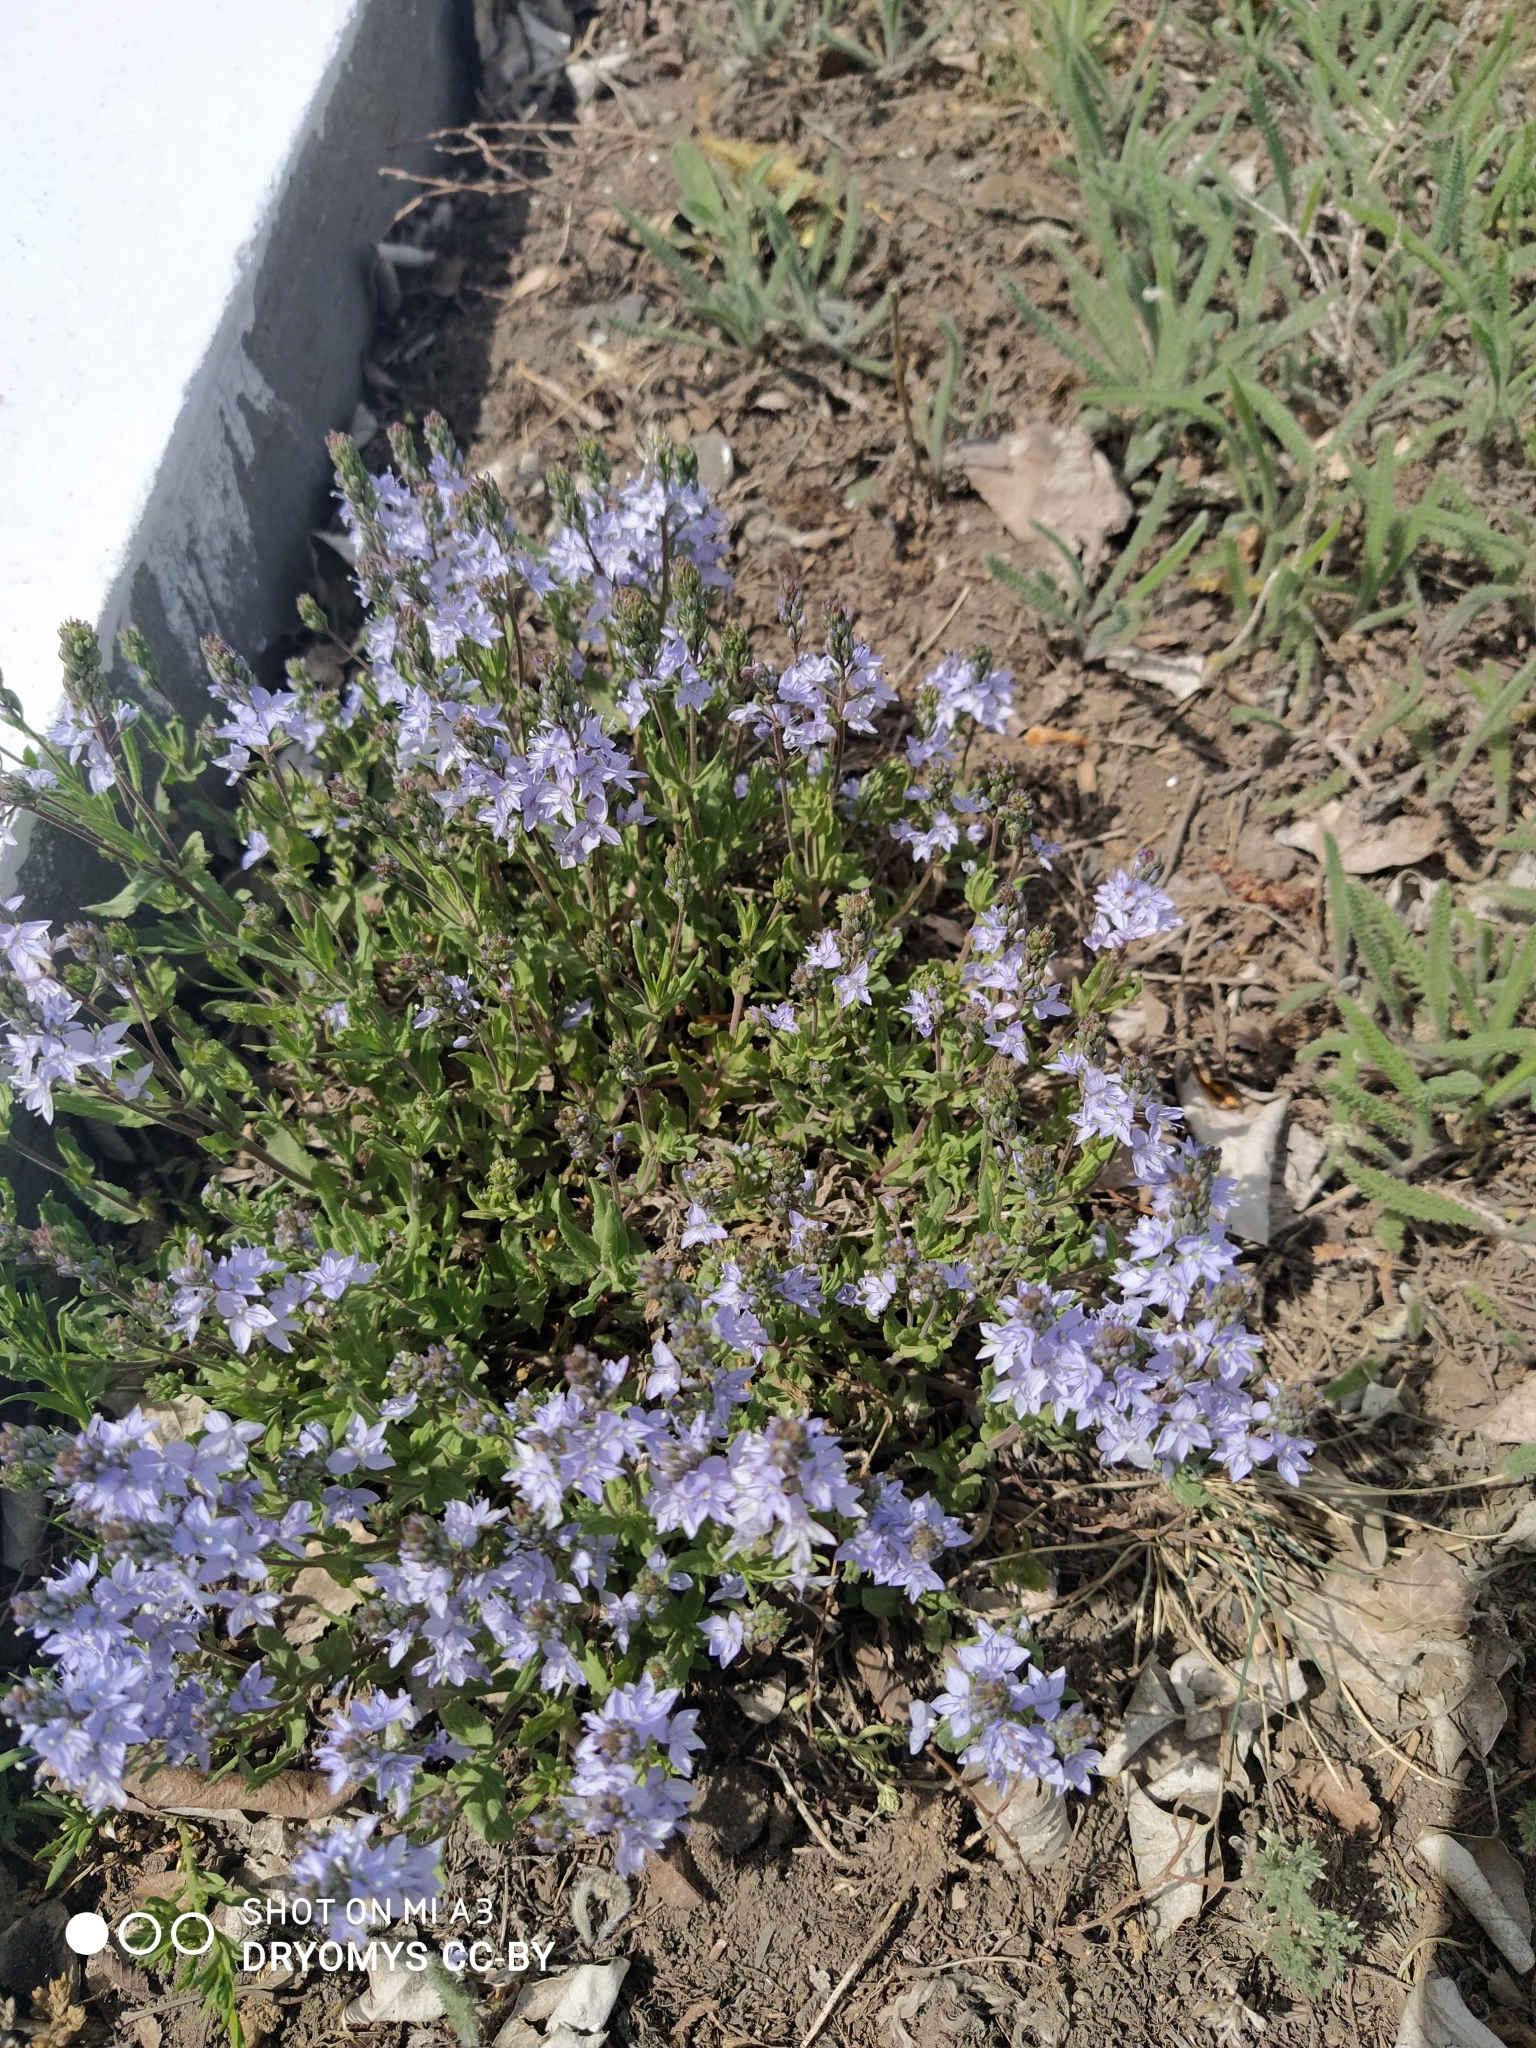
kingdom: Plantae
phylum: Tracheophyta
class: Magnoliopsida
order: Lamiales
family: Plantaginaceae
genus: Veronica
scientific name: Veronica prostrata
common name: Prostrate speedwell
